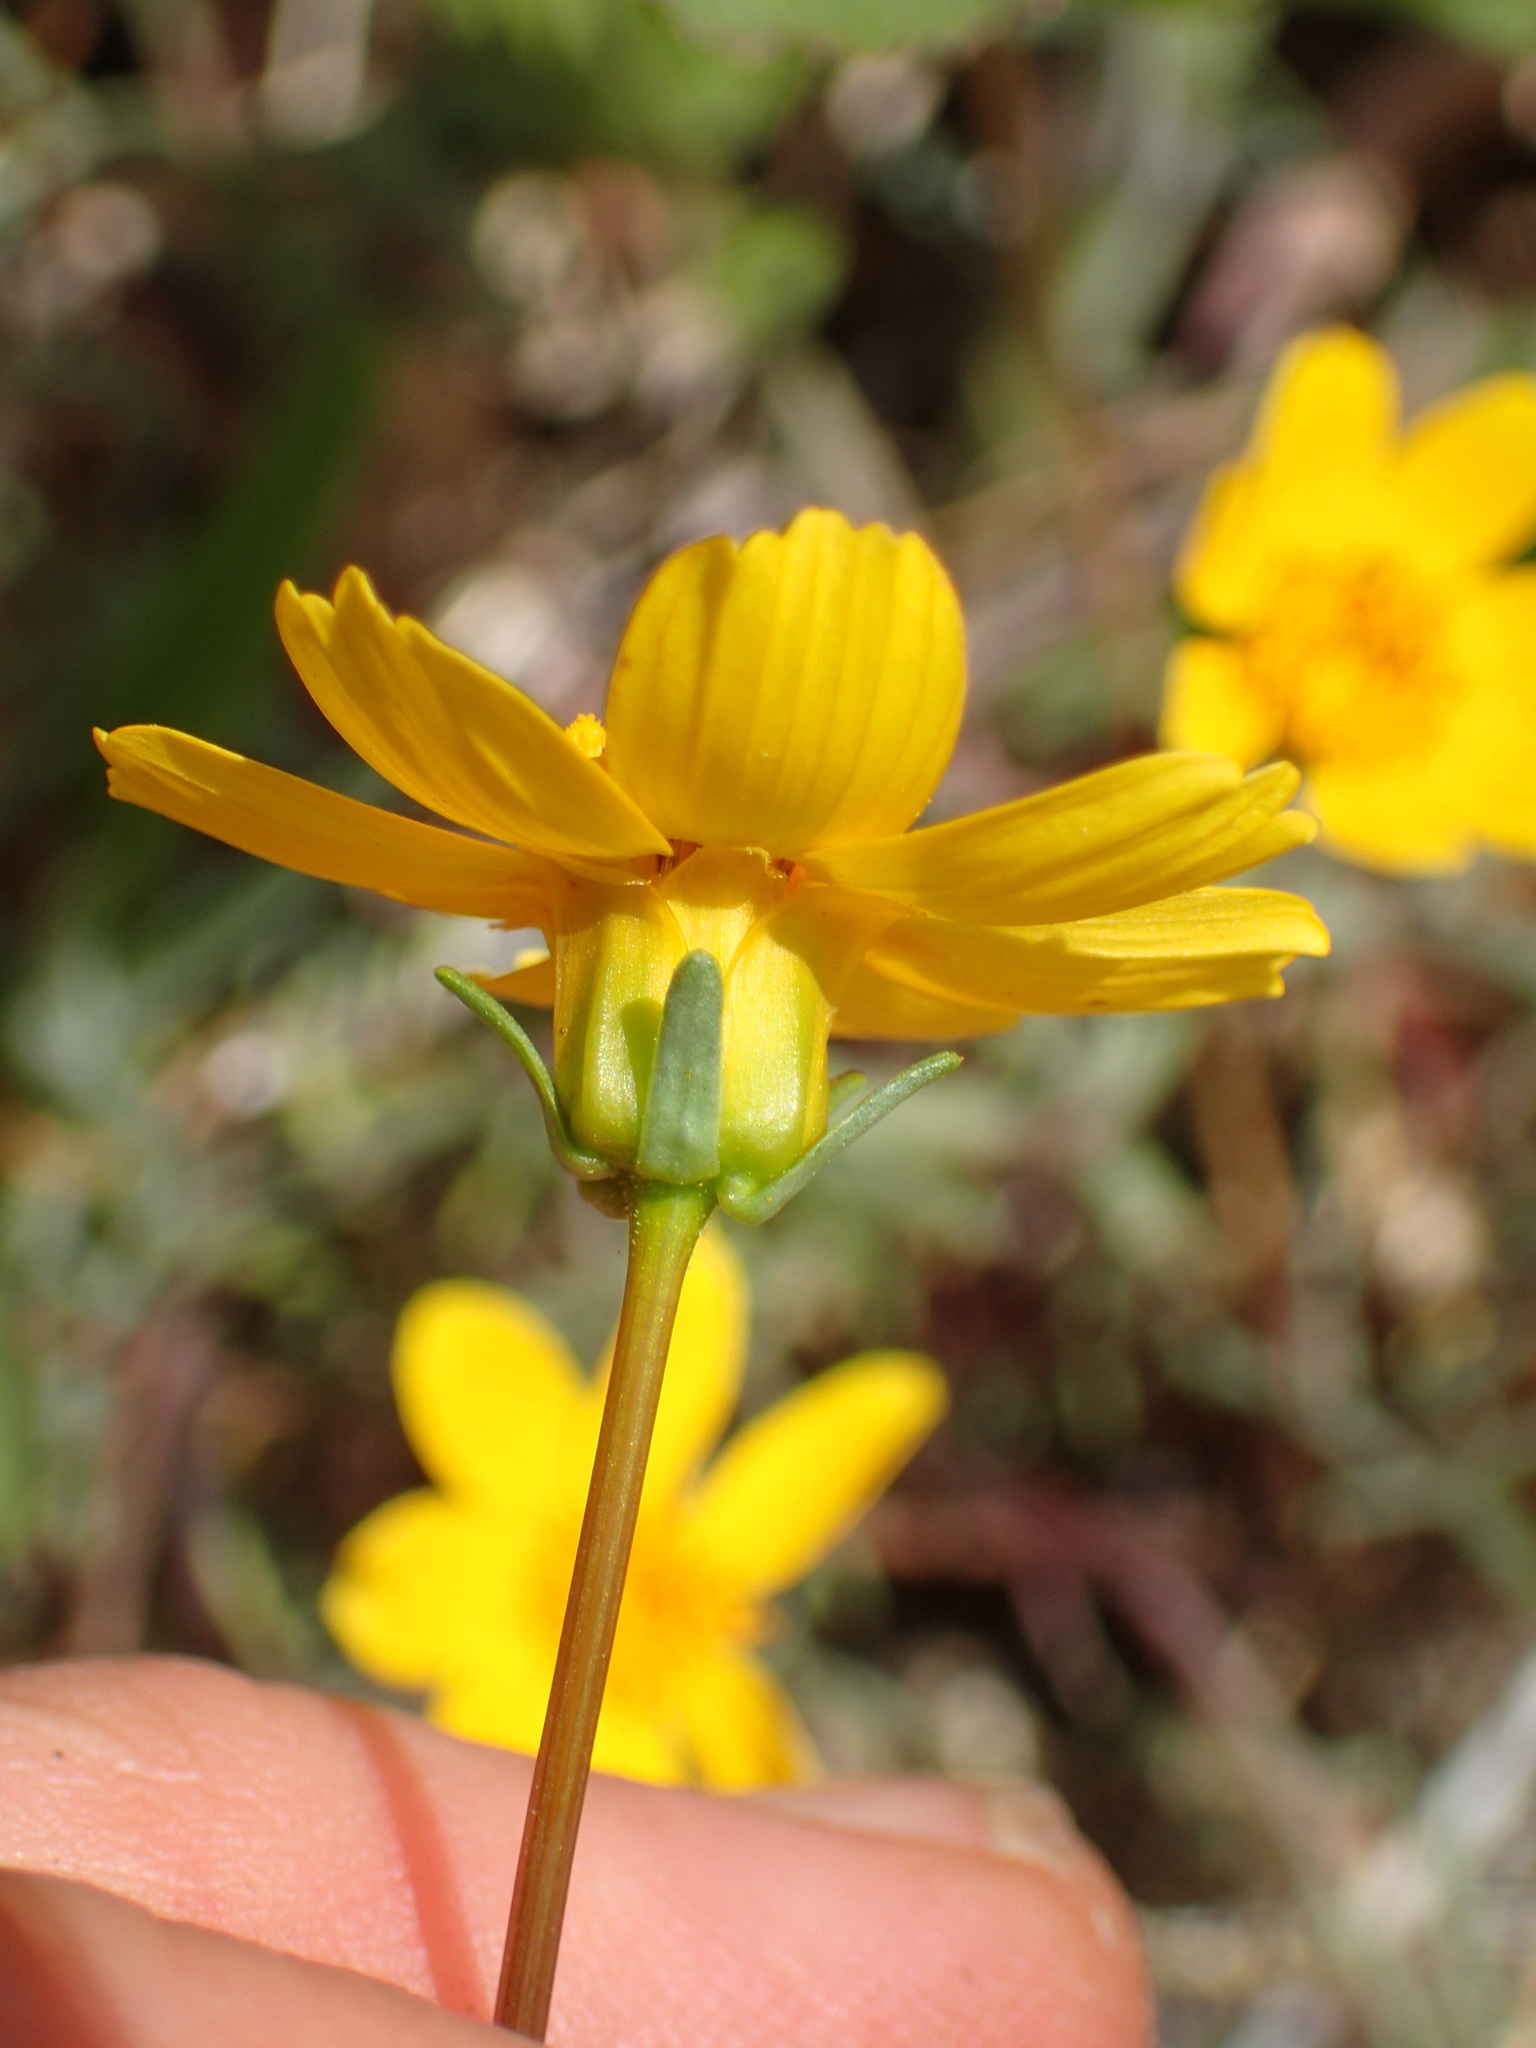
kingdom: Plantae
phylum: Tracheophyta
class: Magnoliopsida
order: Asterales
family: Asteraceae
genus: Coreopsis
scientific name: Coreopsis bigelovii
